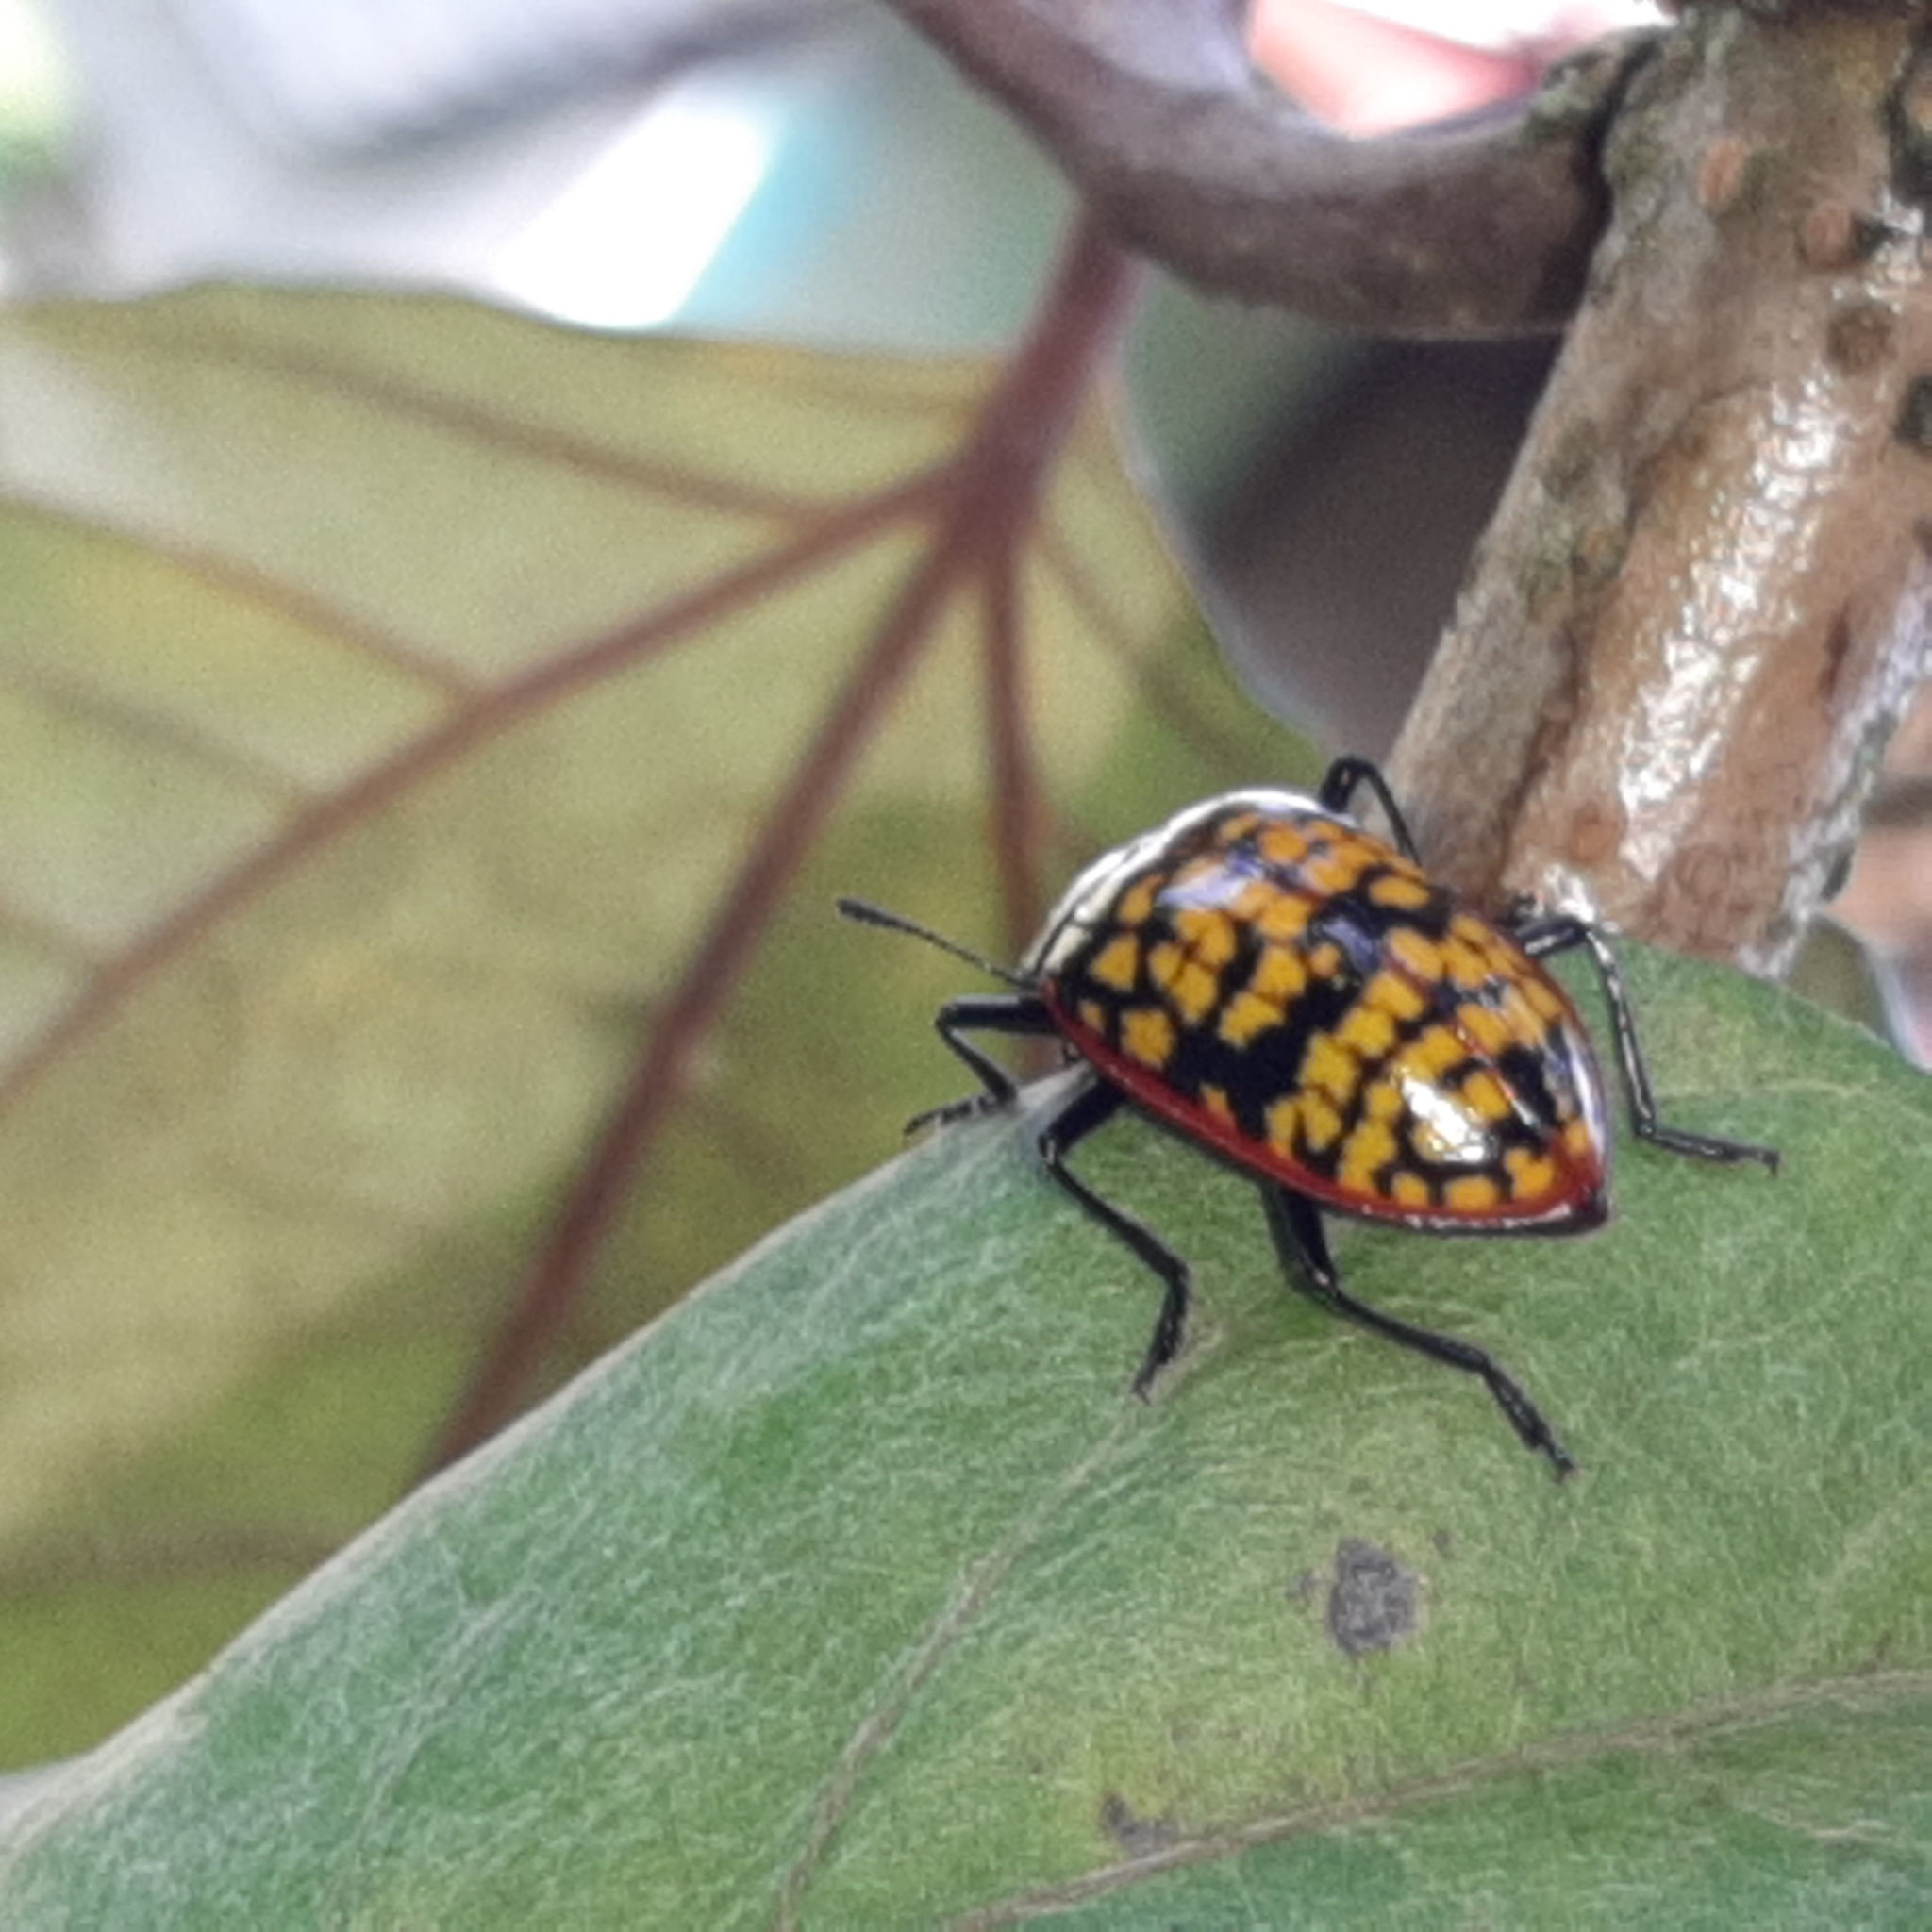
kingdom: Animalia
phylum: Arthropoda
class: Insecta
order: Coleoptera
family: Erotylidae
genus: Erotylina
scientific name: Erotylina
